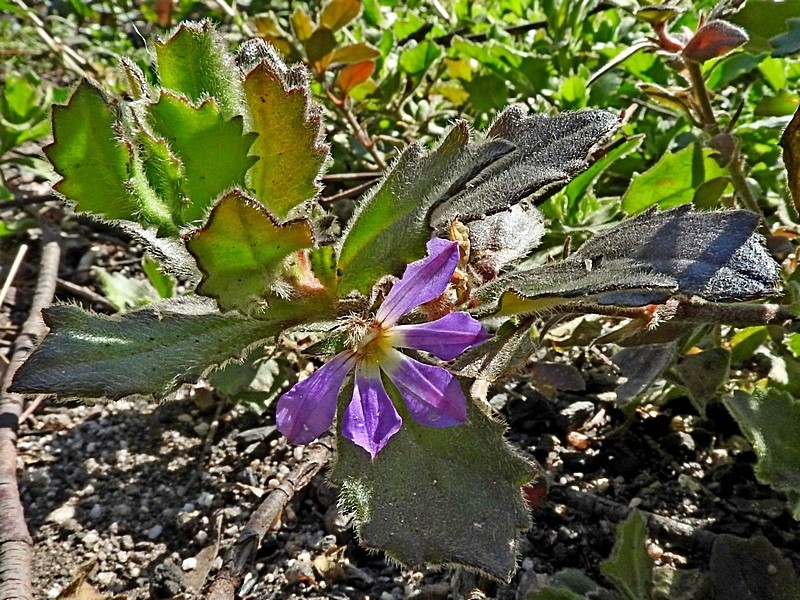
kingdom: Plantae
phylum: Tracheophyta
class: Magnoliopsida
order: Asterales
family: Goodeniaceae
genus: Scaevola
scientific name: Scaevola aemula
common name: Common fanflower
